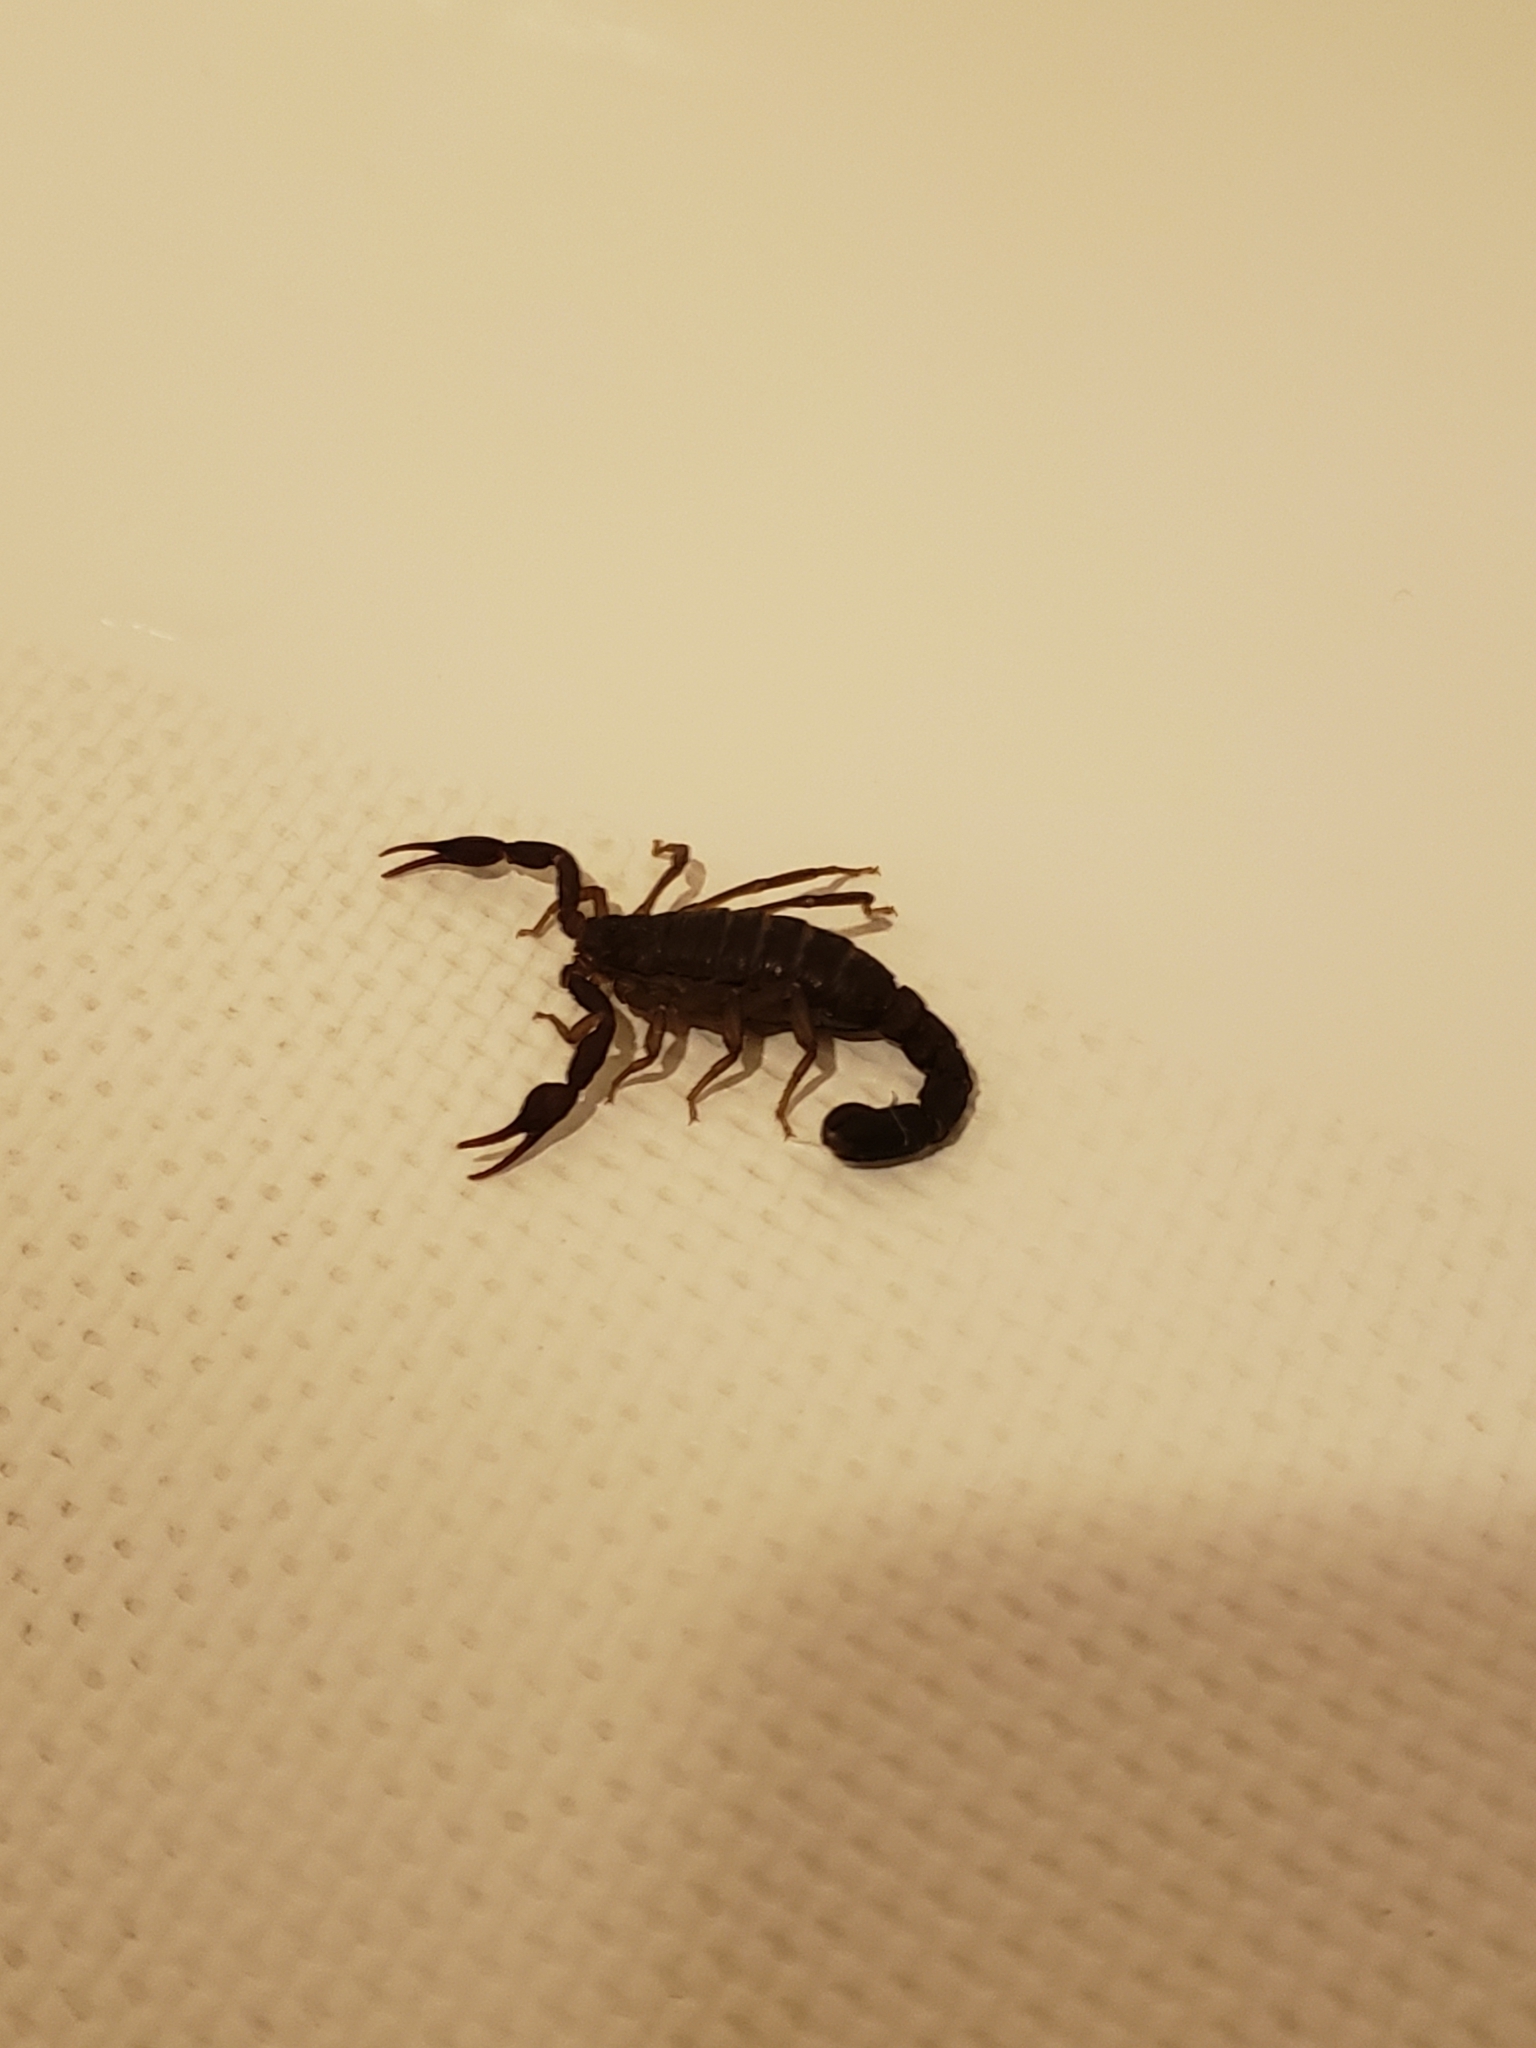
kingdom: Animalia
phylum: Arthropoda
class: Arachnida
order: Scorpiones
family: Vaejovidae
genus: Vaejovis
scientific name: Vaejovis carolinianus
